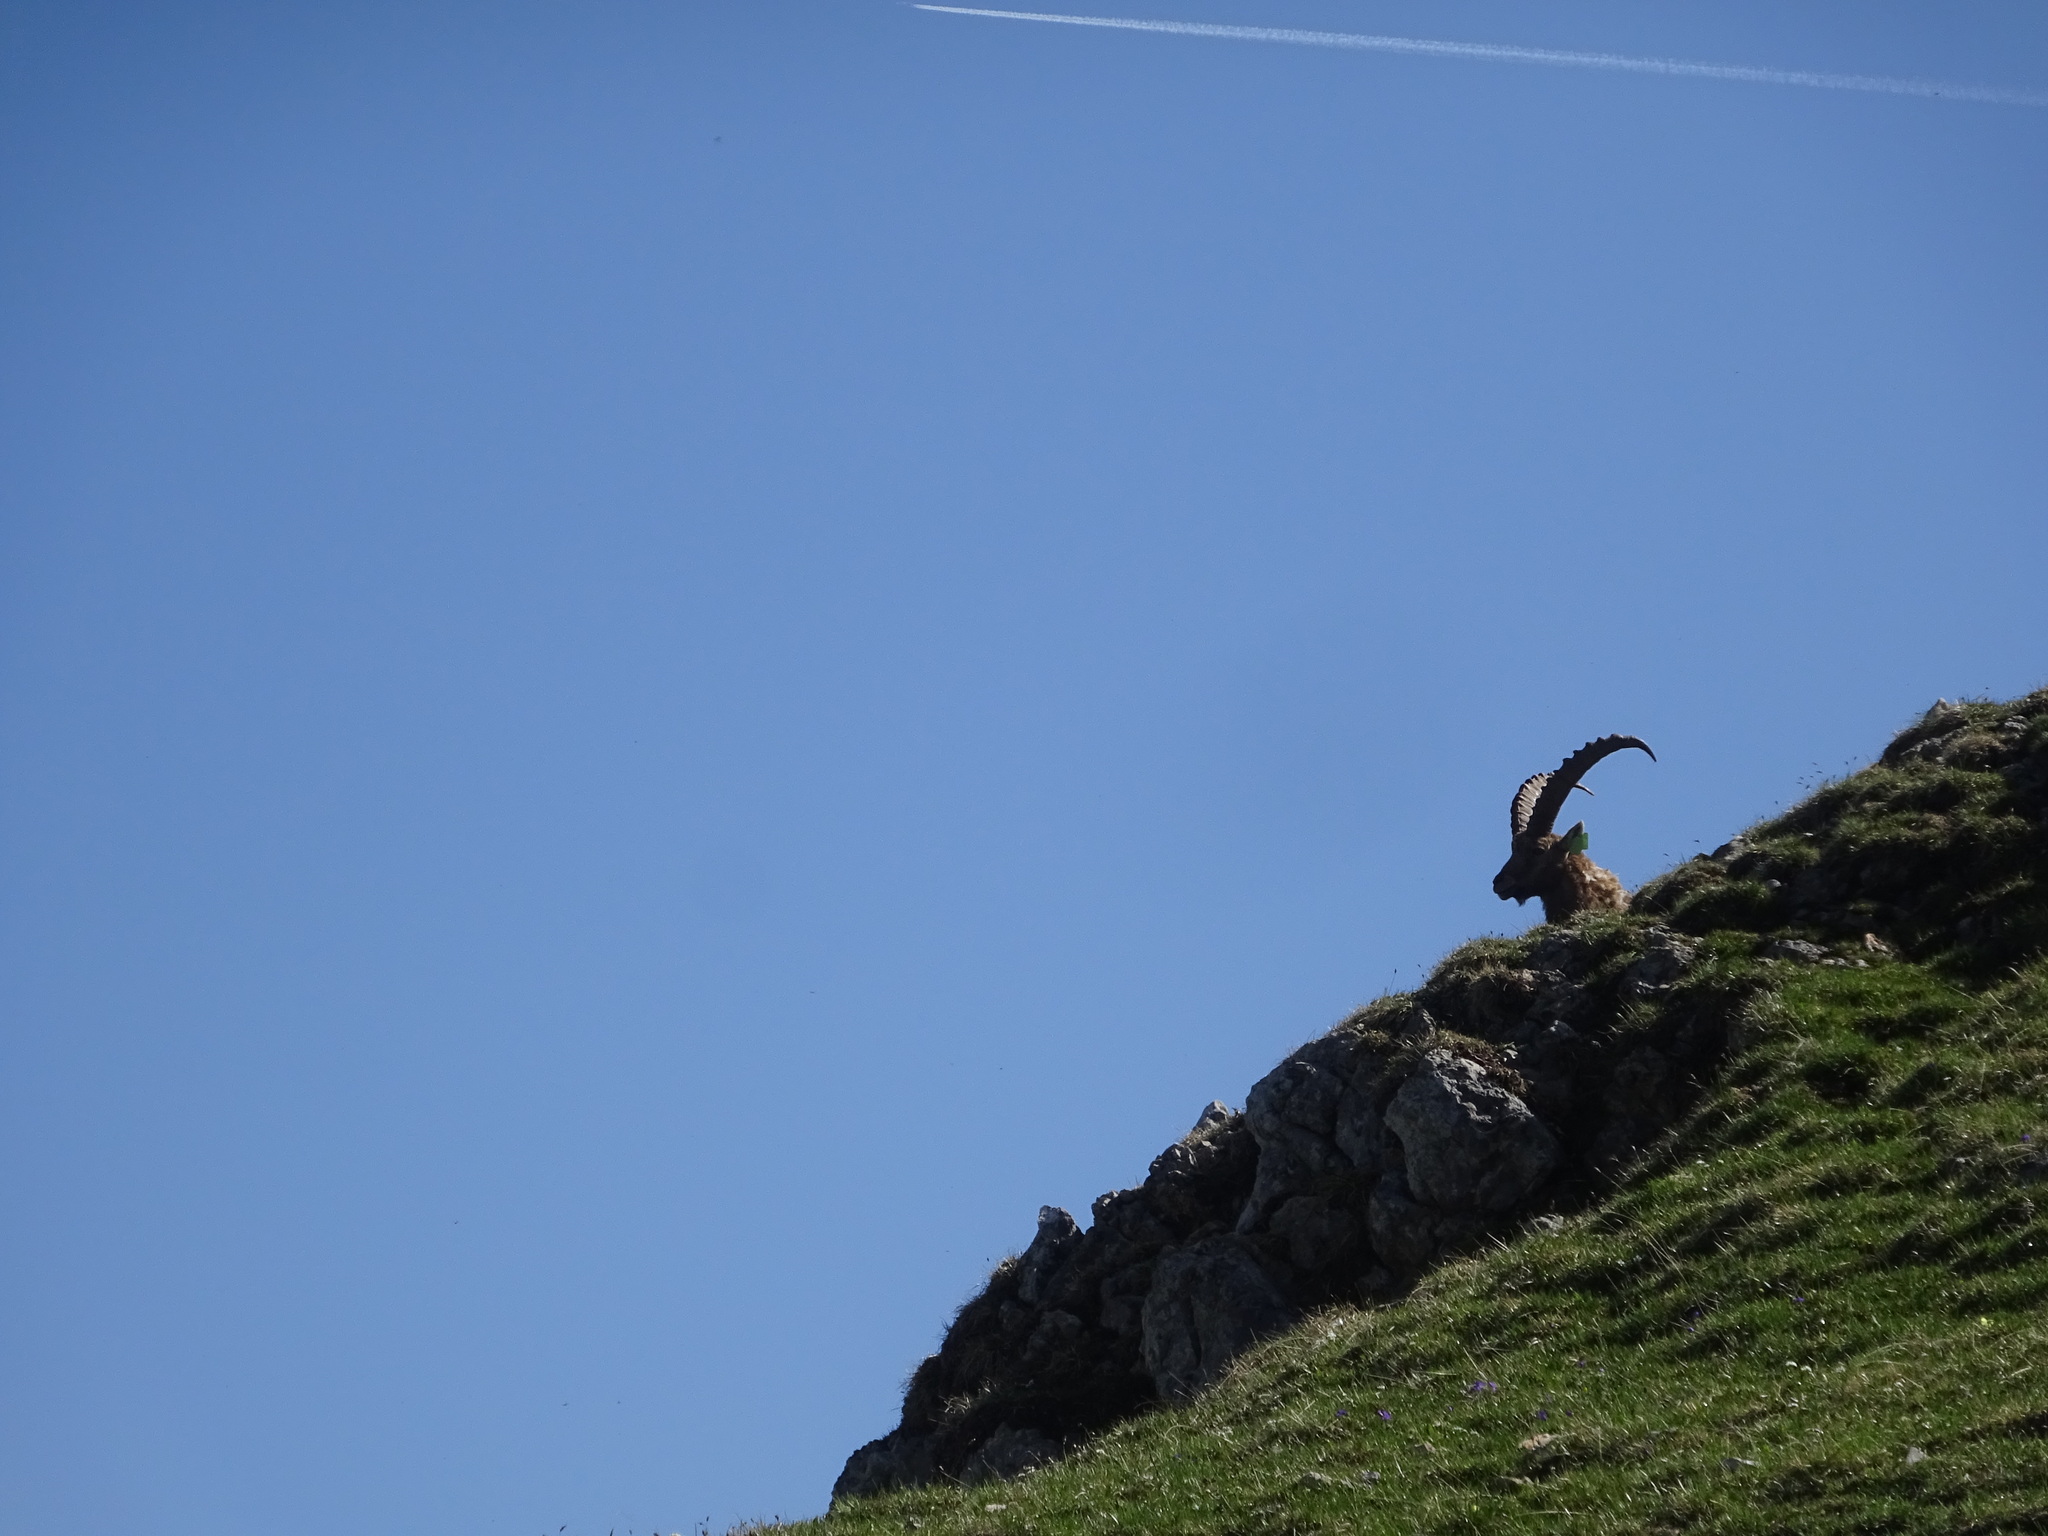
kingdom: Animalia
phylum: Chordata
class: Mammalia
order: Artiodactyla
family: Bovidae
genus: Capra
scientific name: Capra ibex
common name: Alpine ibex
